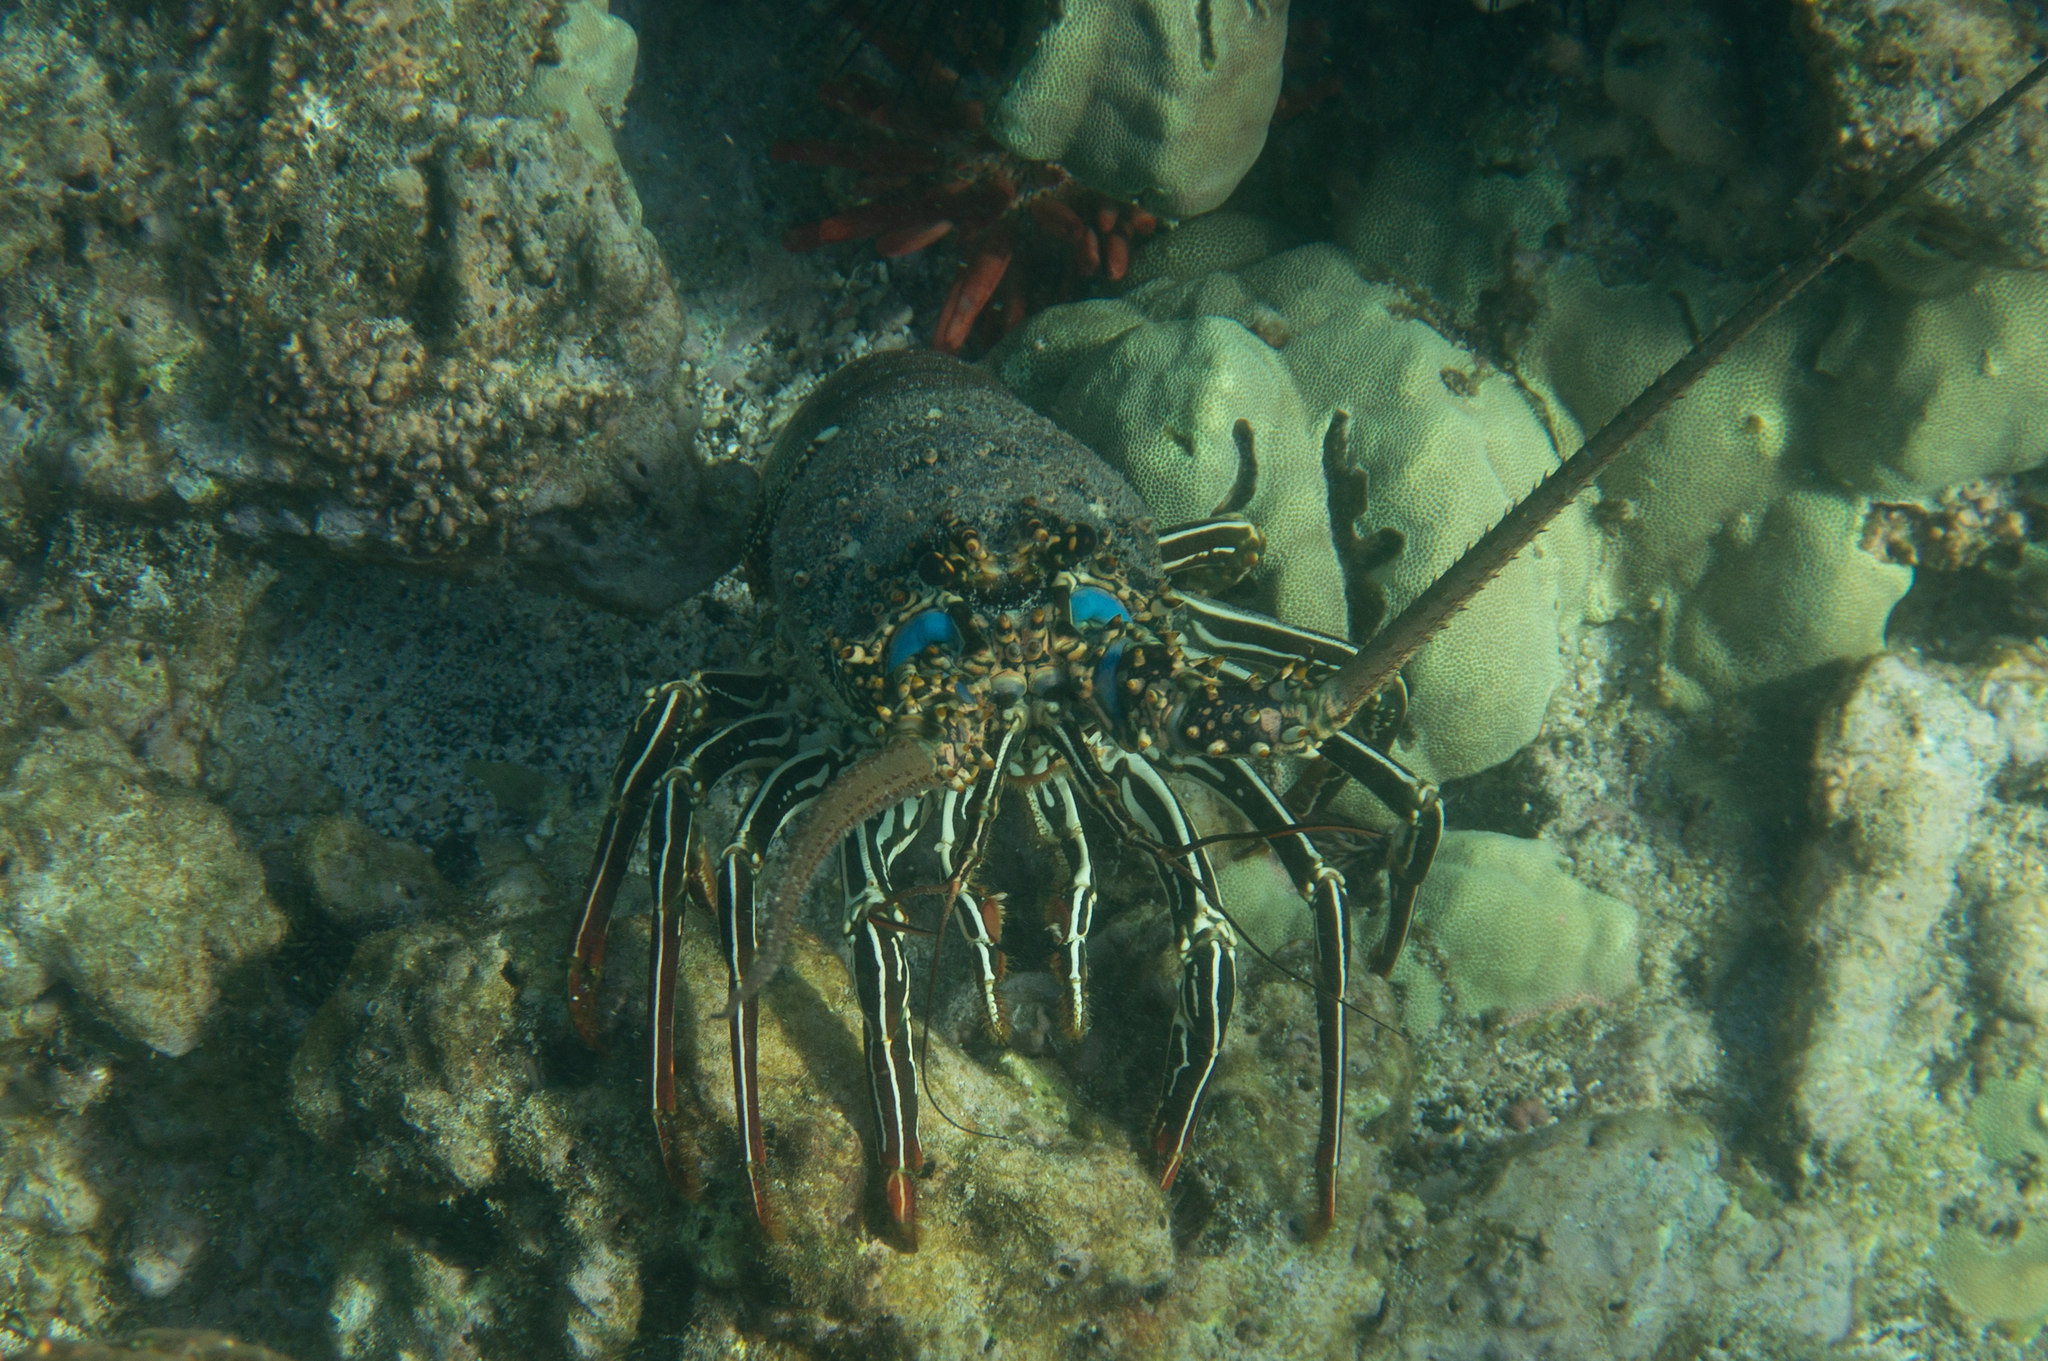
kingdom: Animalia
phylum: Arthropoda
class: Malacostraca
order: Decapoda
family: Palinuridae
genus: Panulirus
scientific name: Panulirus penicillatus
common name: Pronghorn spiny lobster
